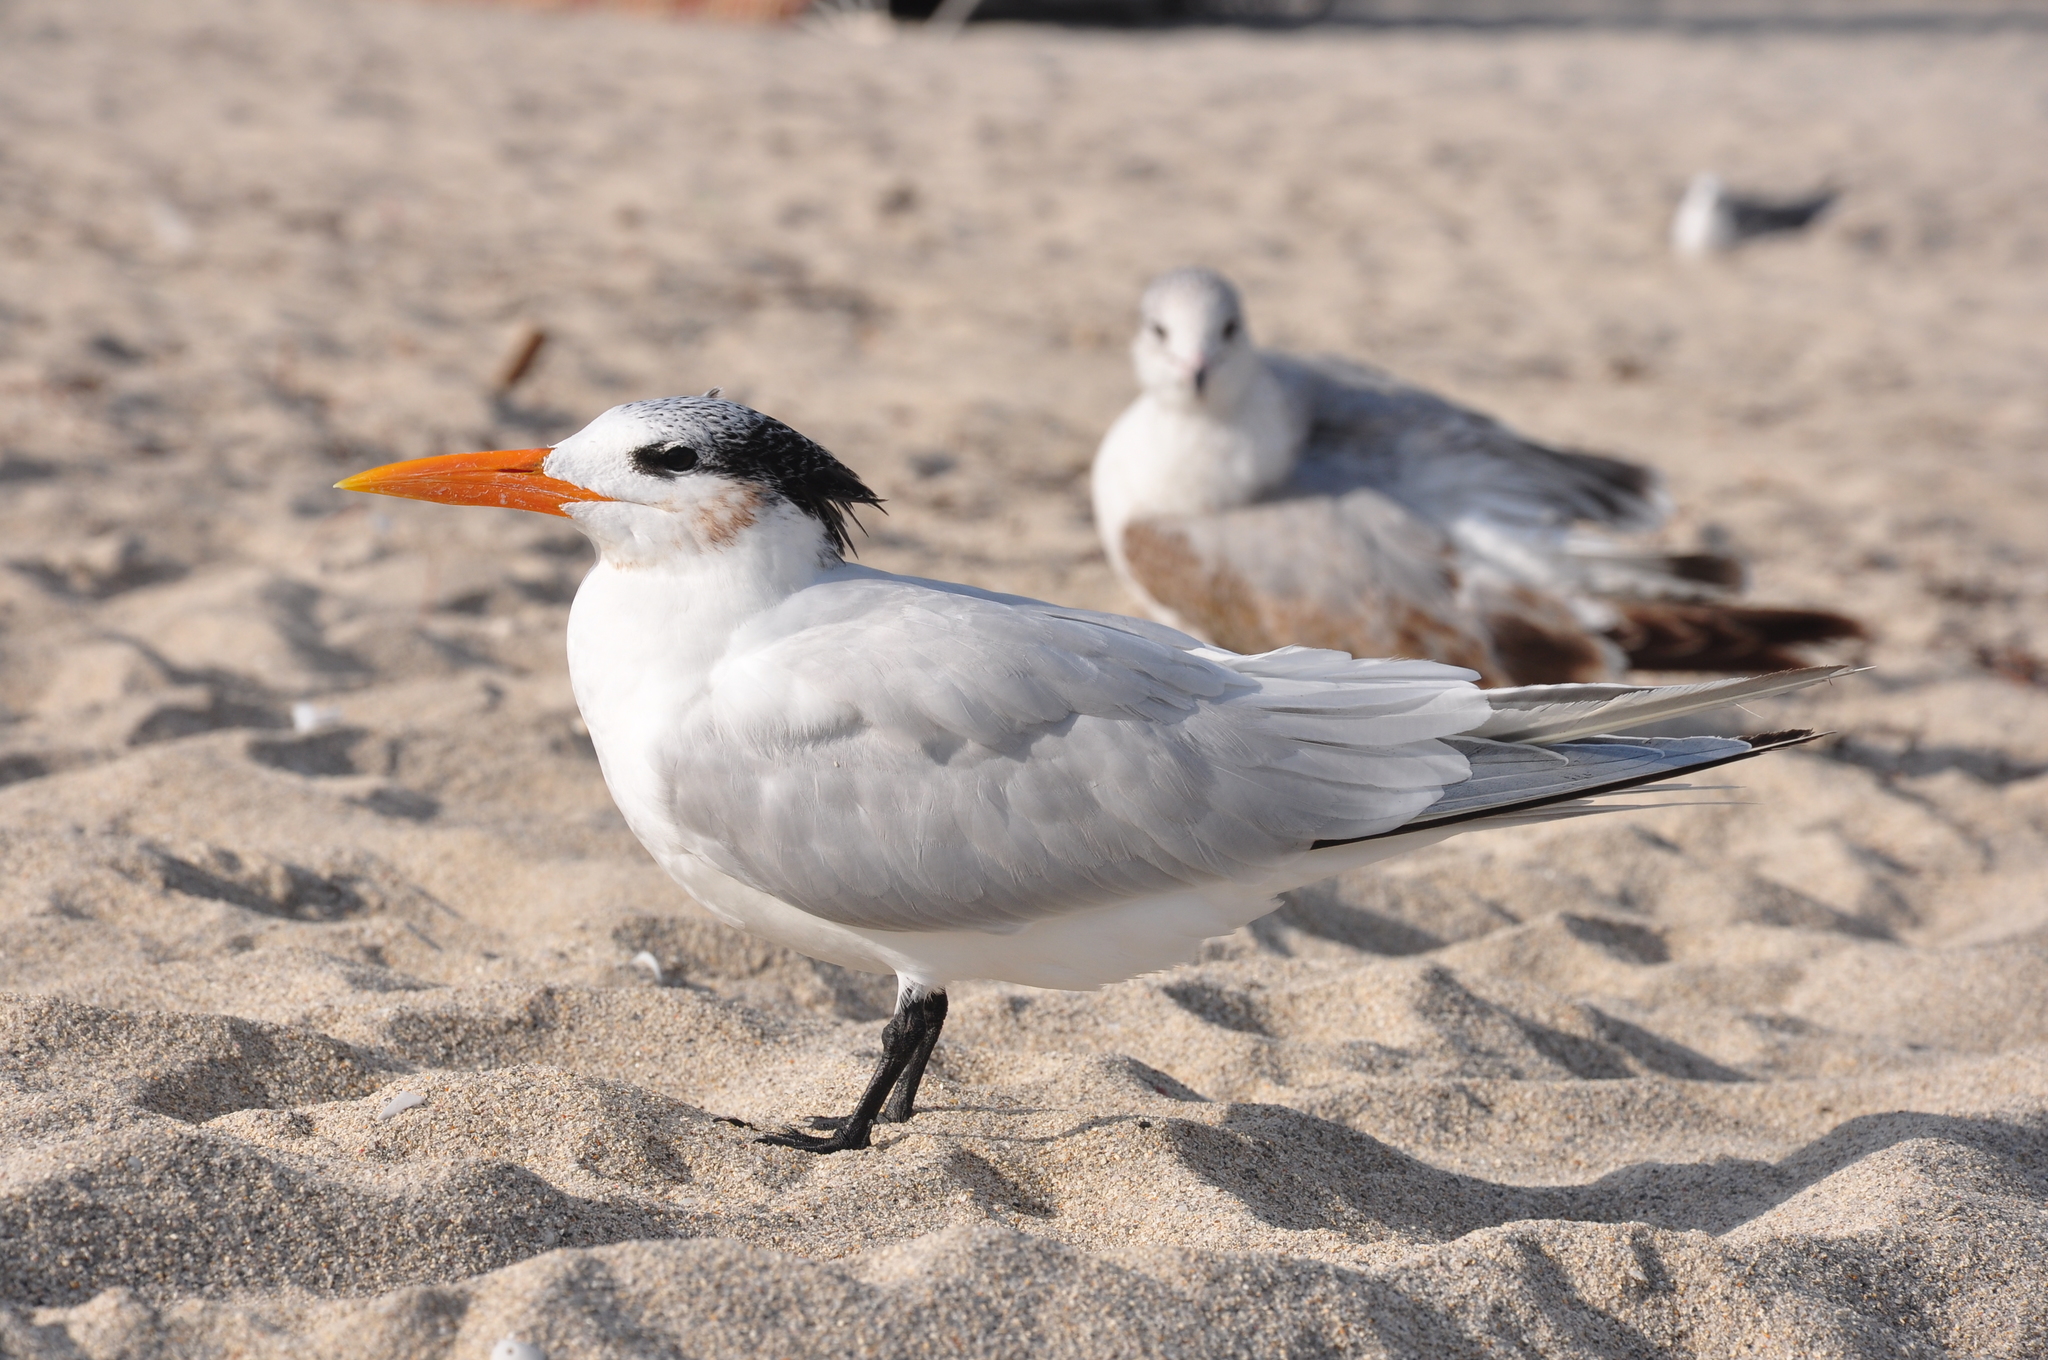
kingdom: Animalia
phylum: Chordata
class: Aves
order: Charadriiformes
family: Laridae
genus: Thalasseus
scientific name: Thalasseus maximus
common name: Royal tern
